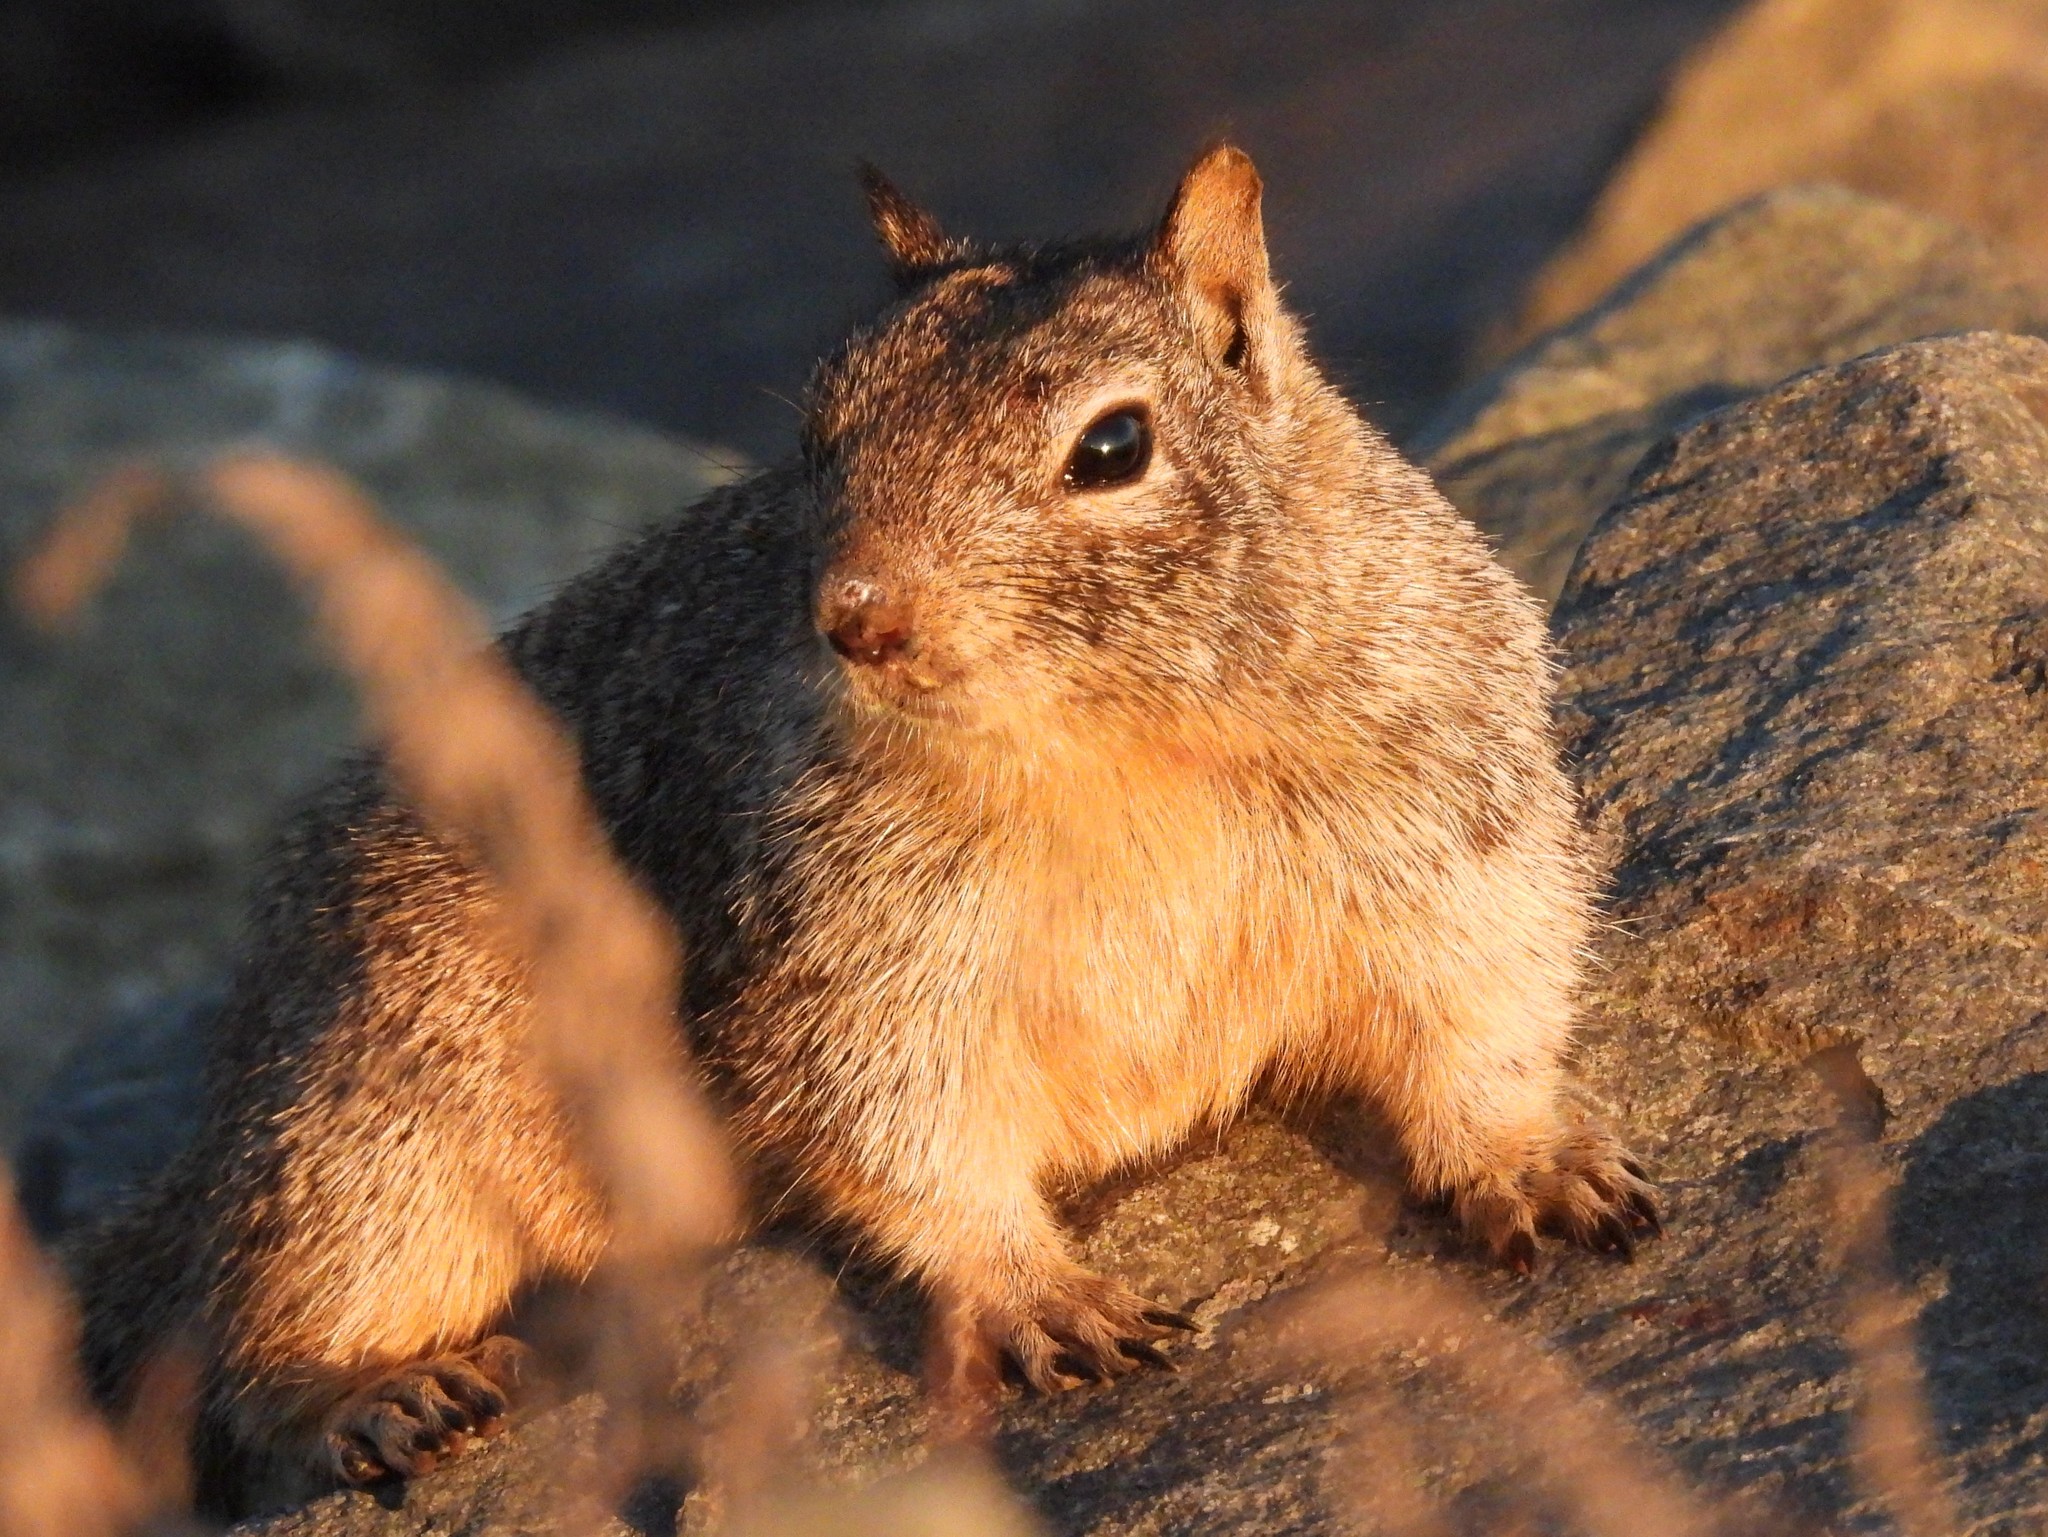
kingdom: Animalia
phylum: Chordata
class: Mammalia
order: Rodentia
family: Sciuridae
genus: Otospermophilus
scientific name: Otospermophilus beecheyi
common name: California ground squirrel
